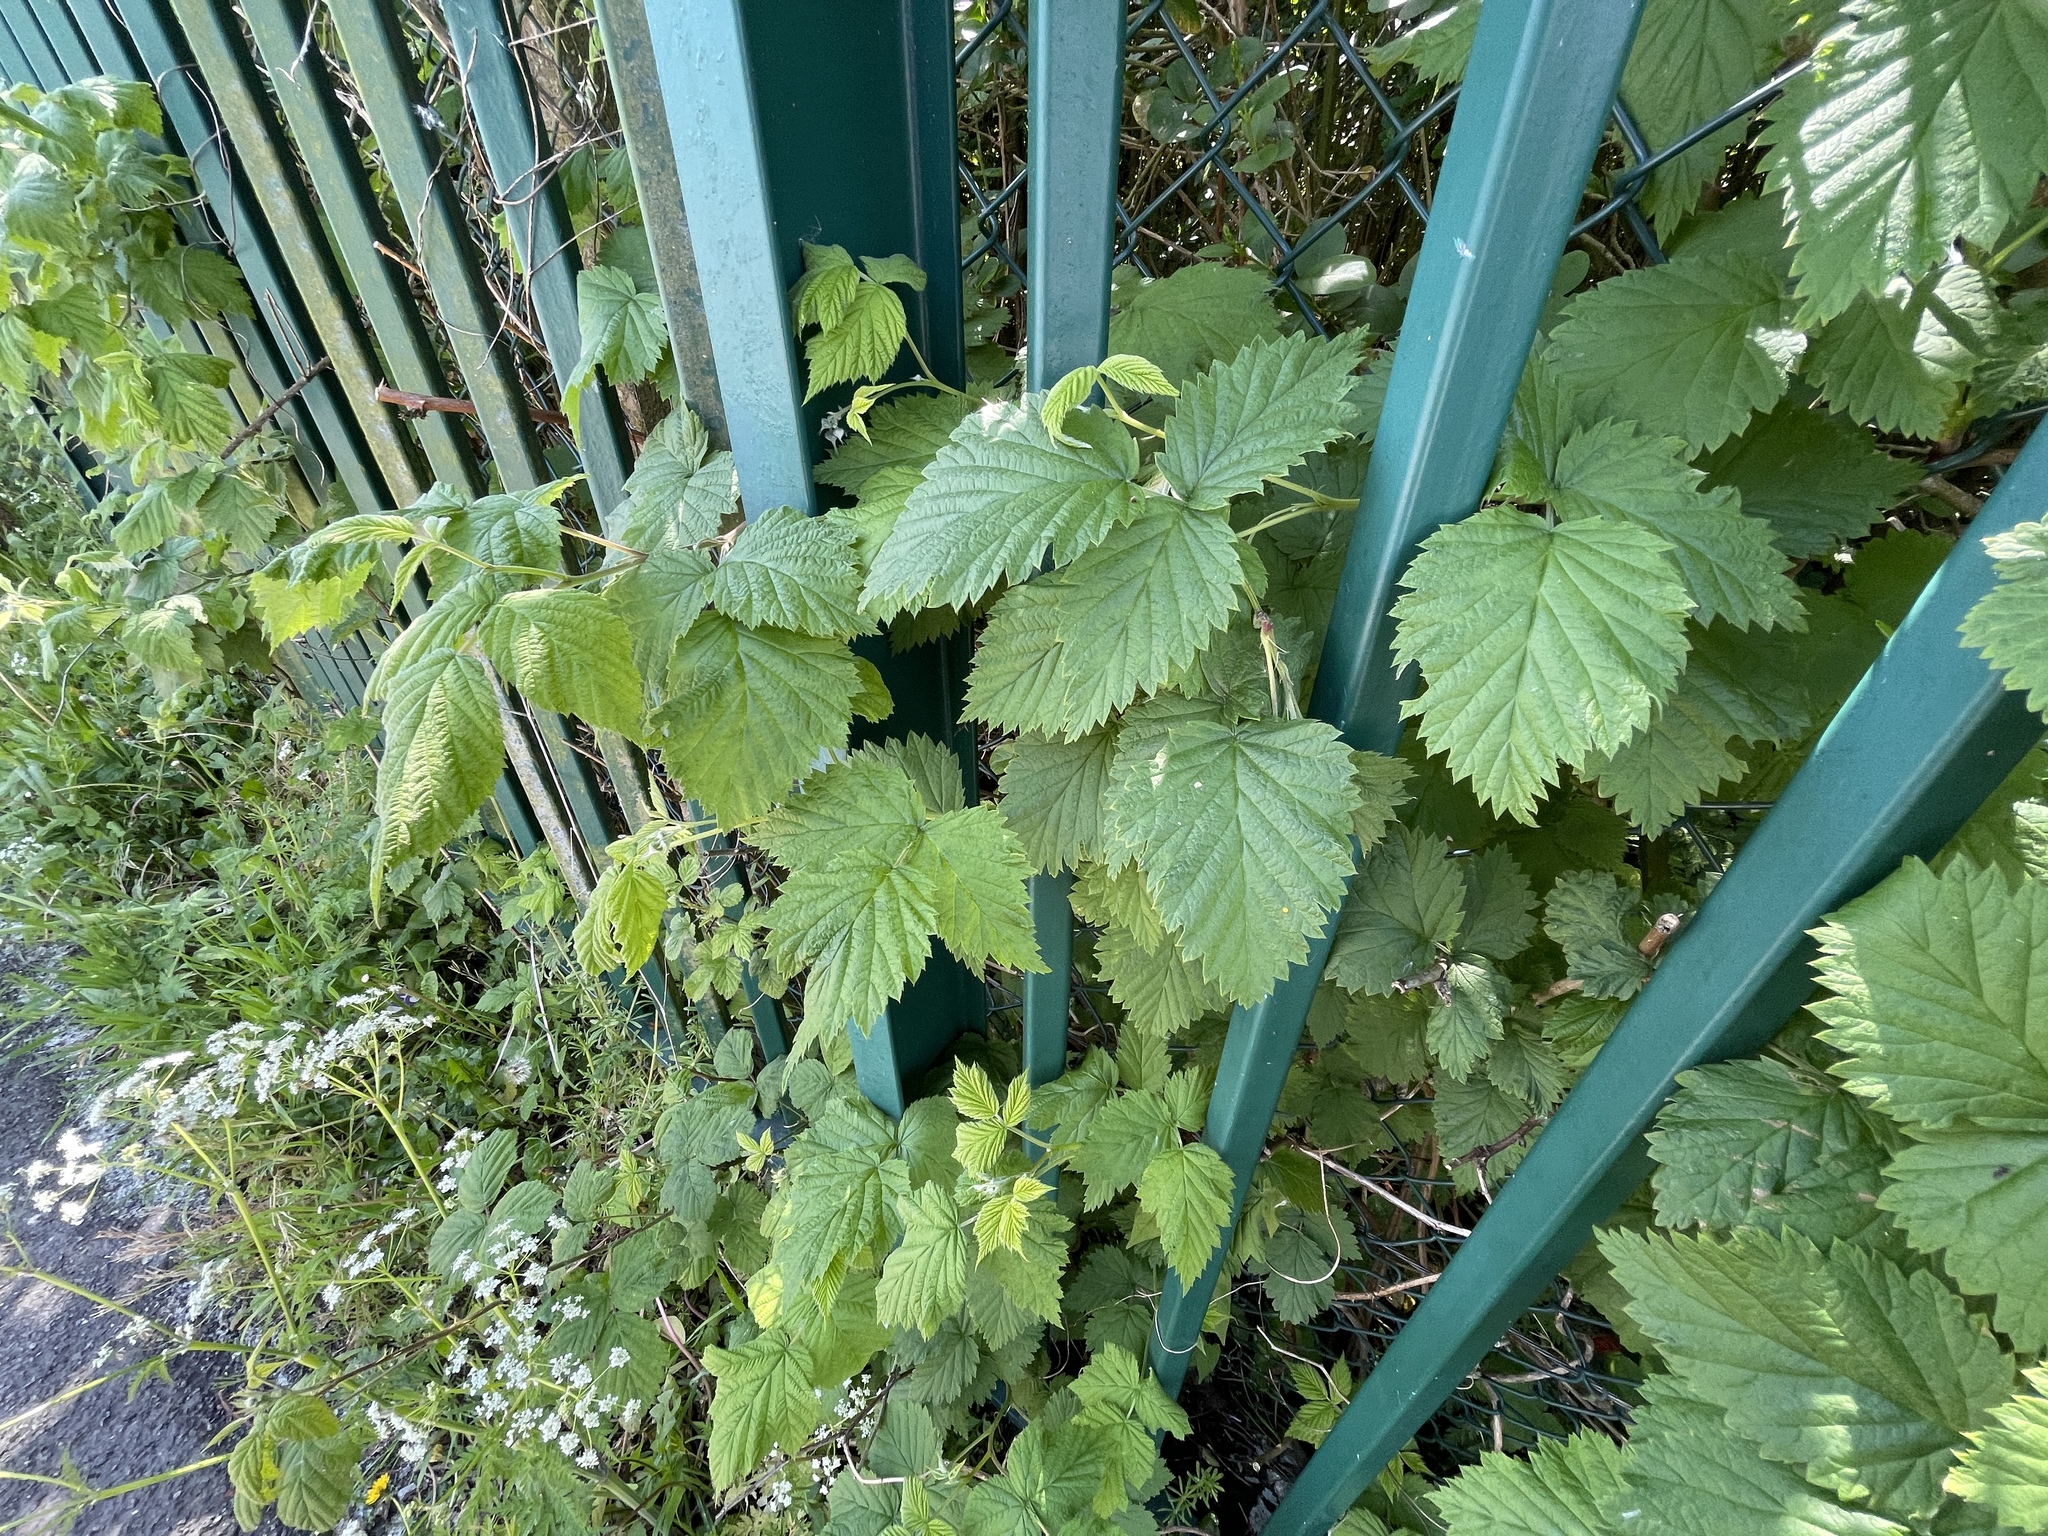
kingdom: Plantae
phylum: Tracheophyta
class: Magnoliopsida
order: Rosales
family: Cannabaceae
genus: Humulus
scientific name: Humulus lupulus
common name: Hop
